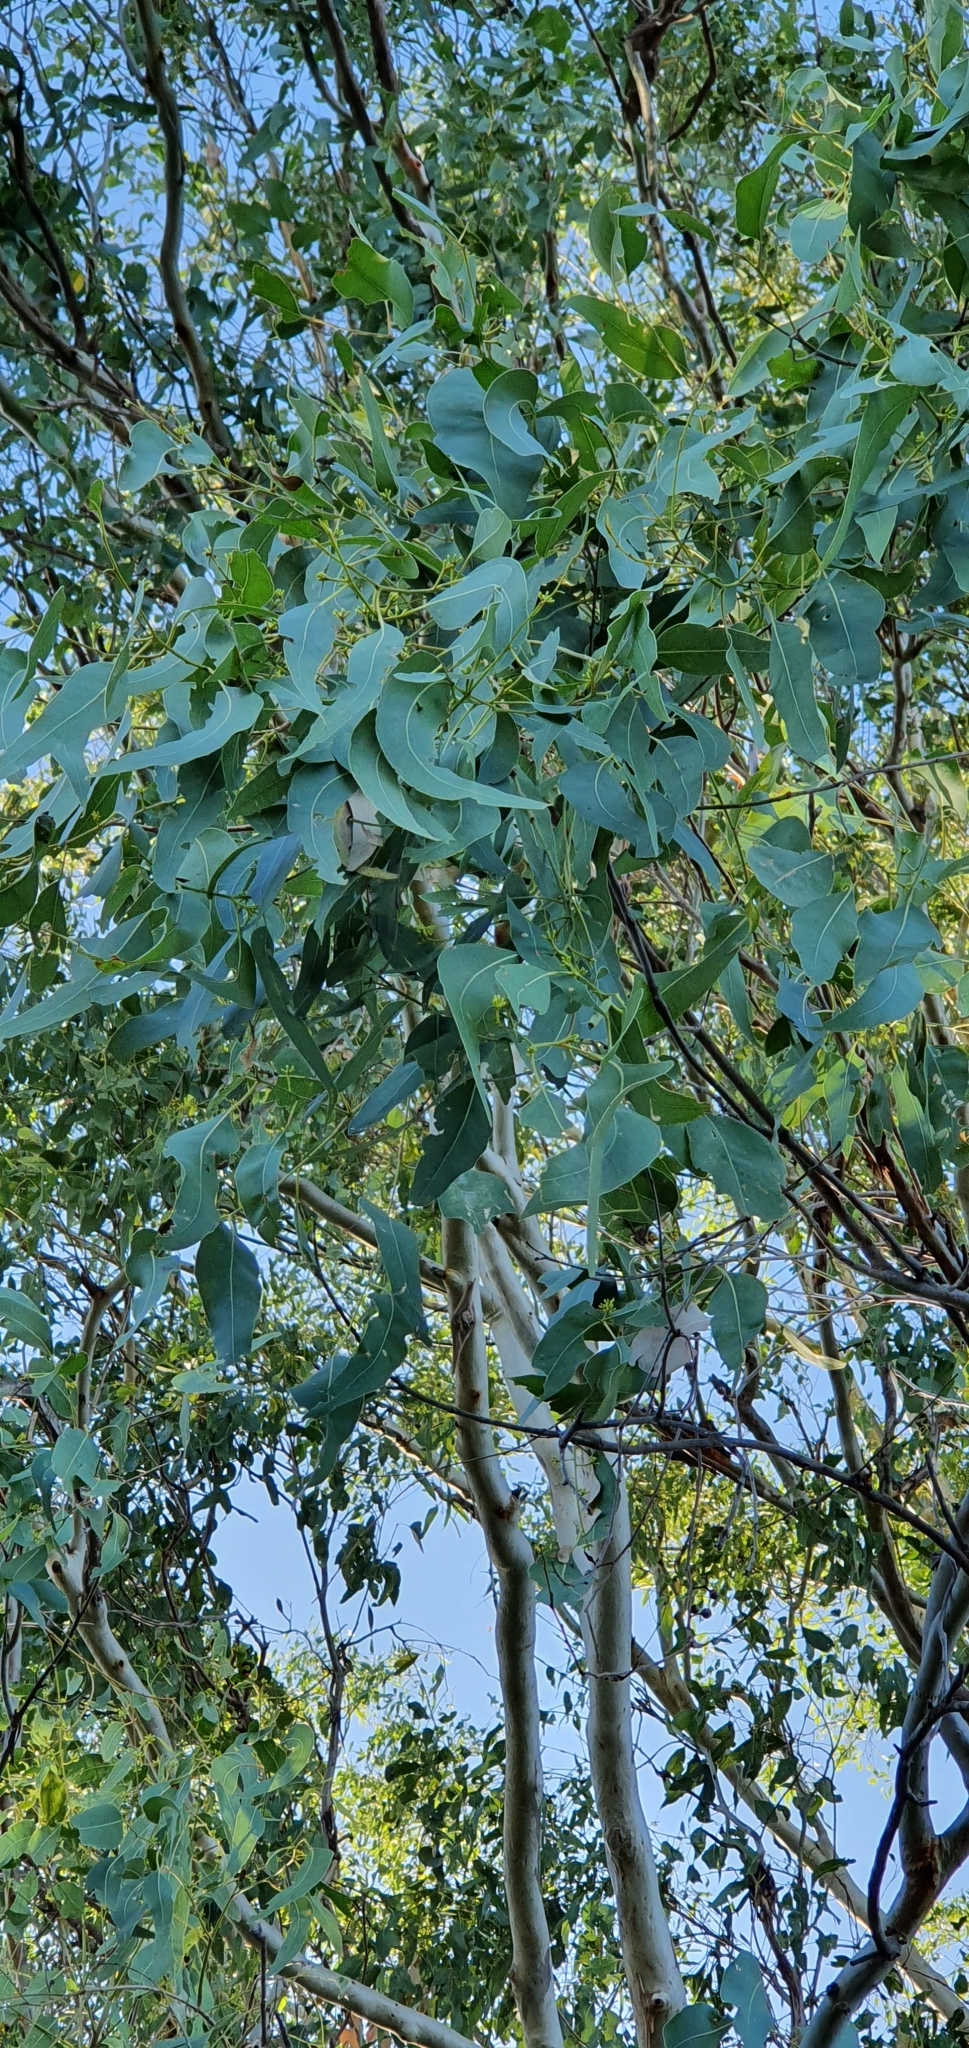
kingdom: Plantae
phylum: Tracheophyta
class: Magnoliopsida
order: Myrtales
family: Myrtaceae
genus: Eucalyptus
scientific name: Eucalyptus tereticornis
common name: Forest redgum
